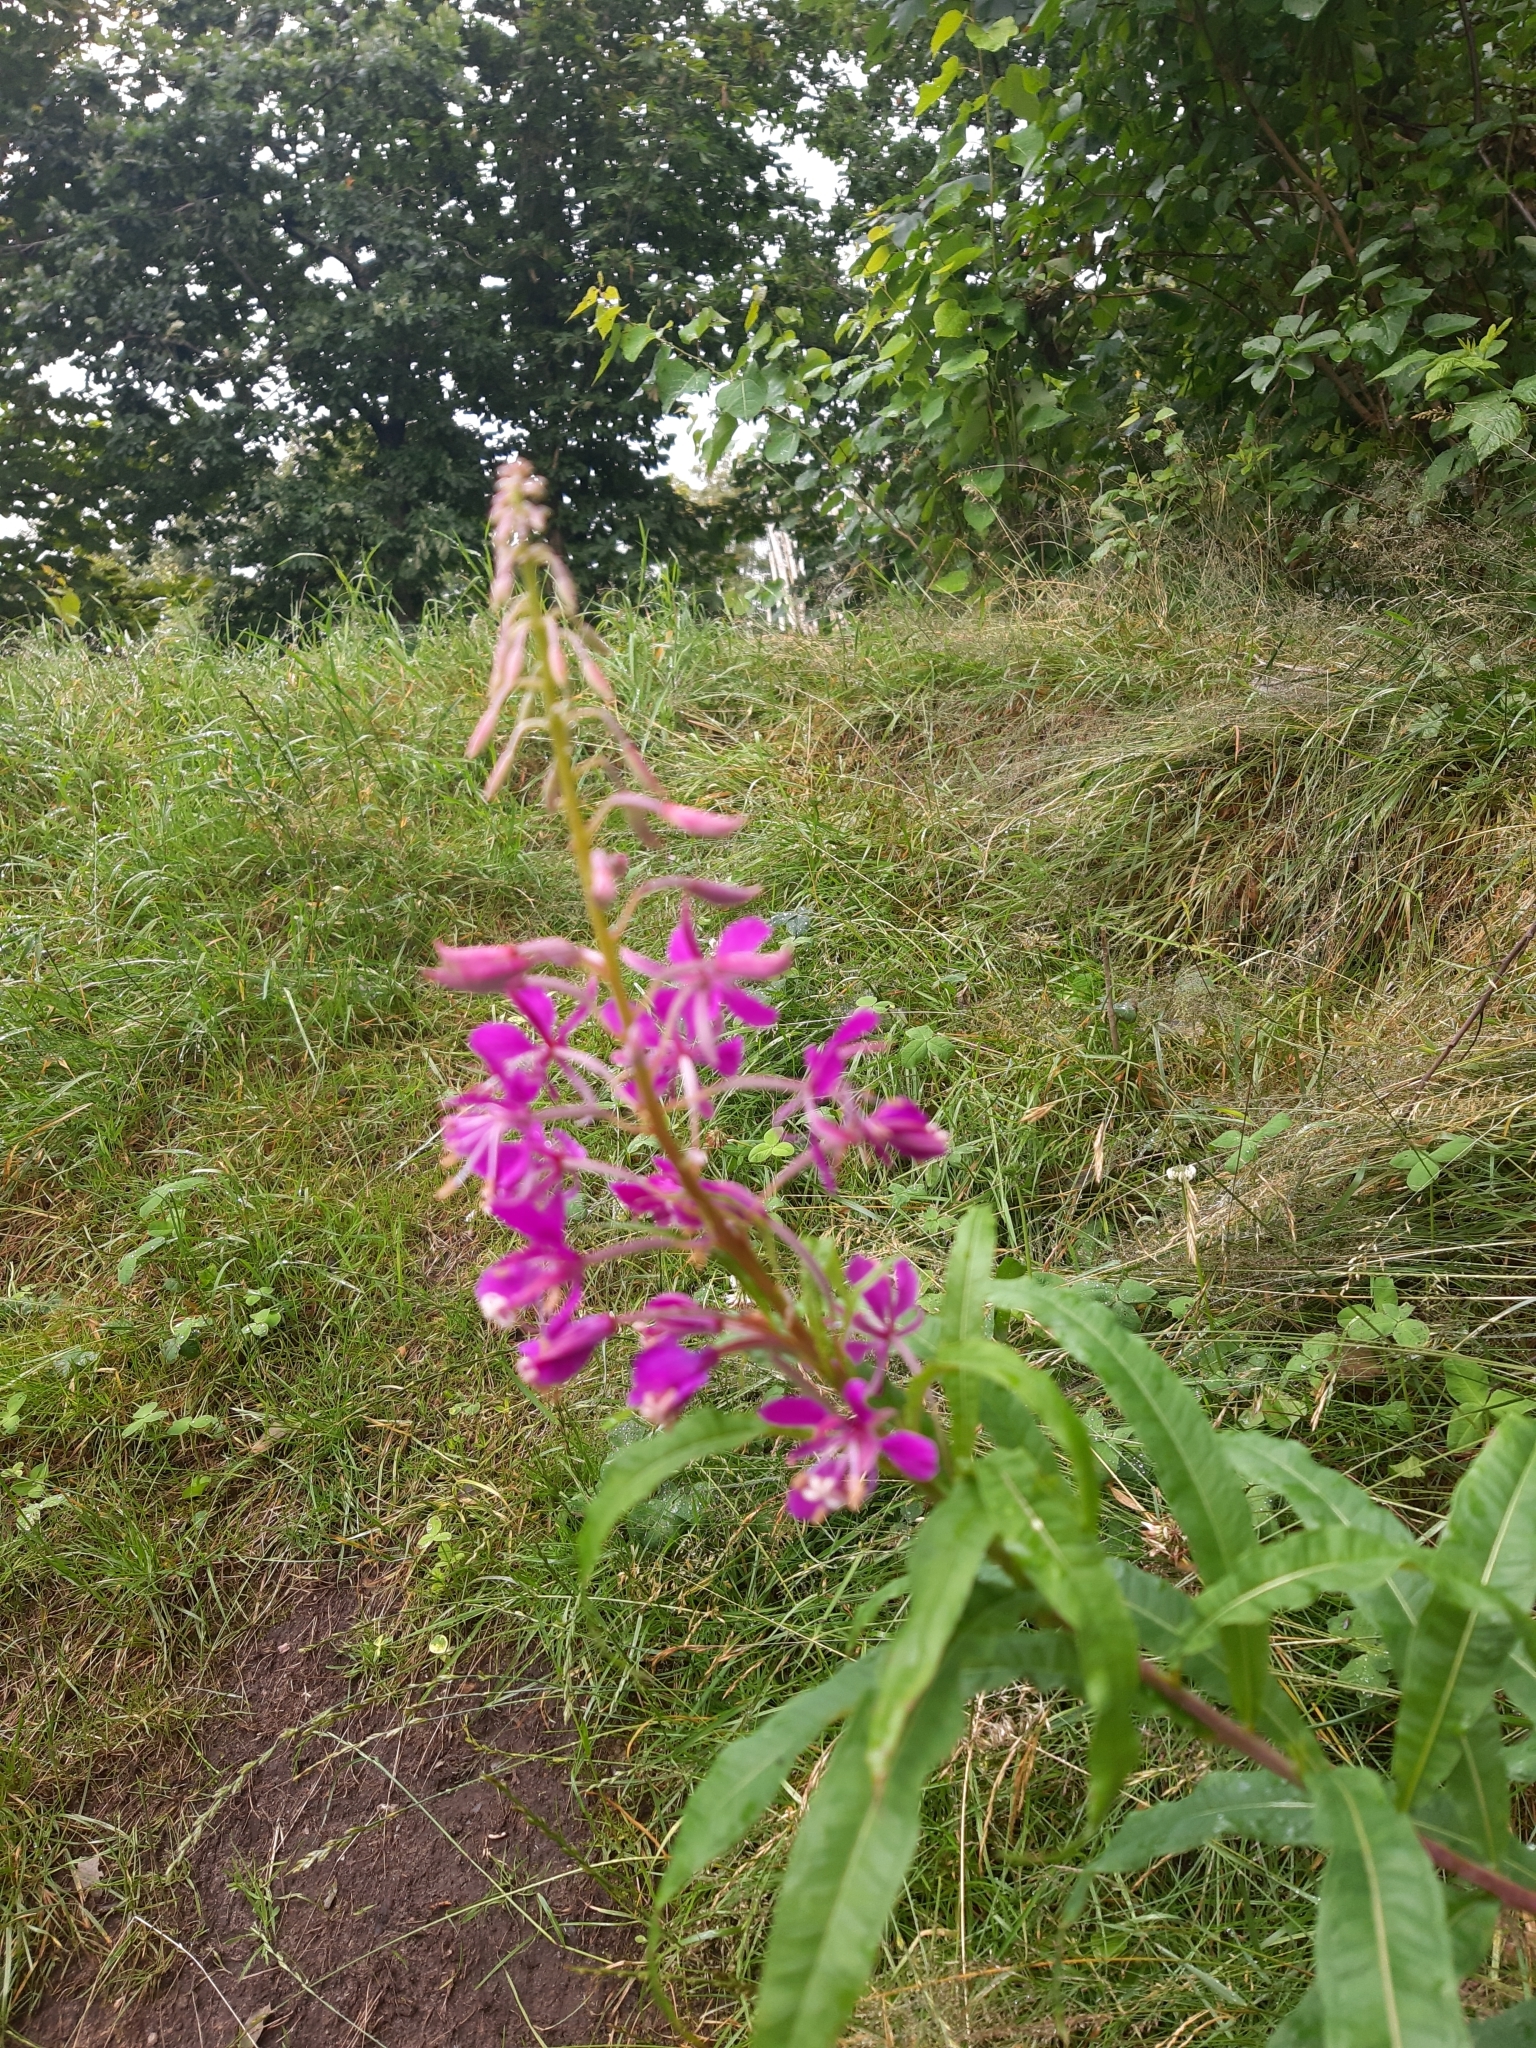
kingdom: Plantae
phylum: Tracheophyta
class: Magnoliopsida
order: Myrtales
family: Onagraceae
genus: Chamaenerion
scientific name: Chamaenerion angustifolium
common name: Fireweed
